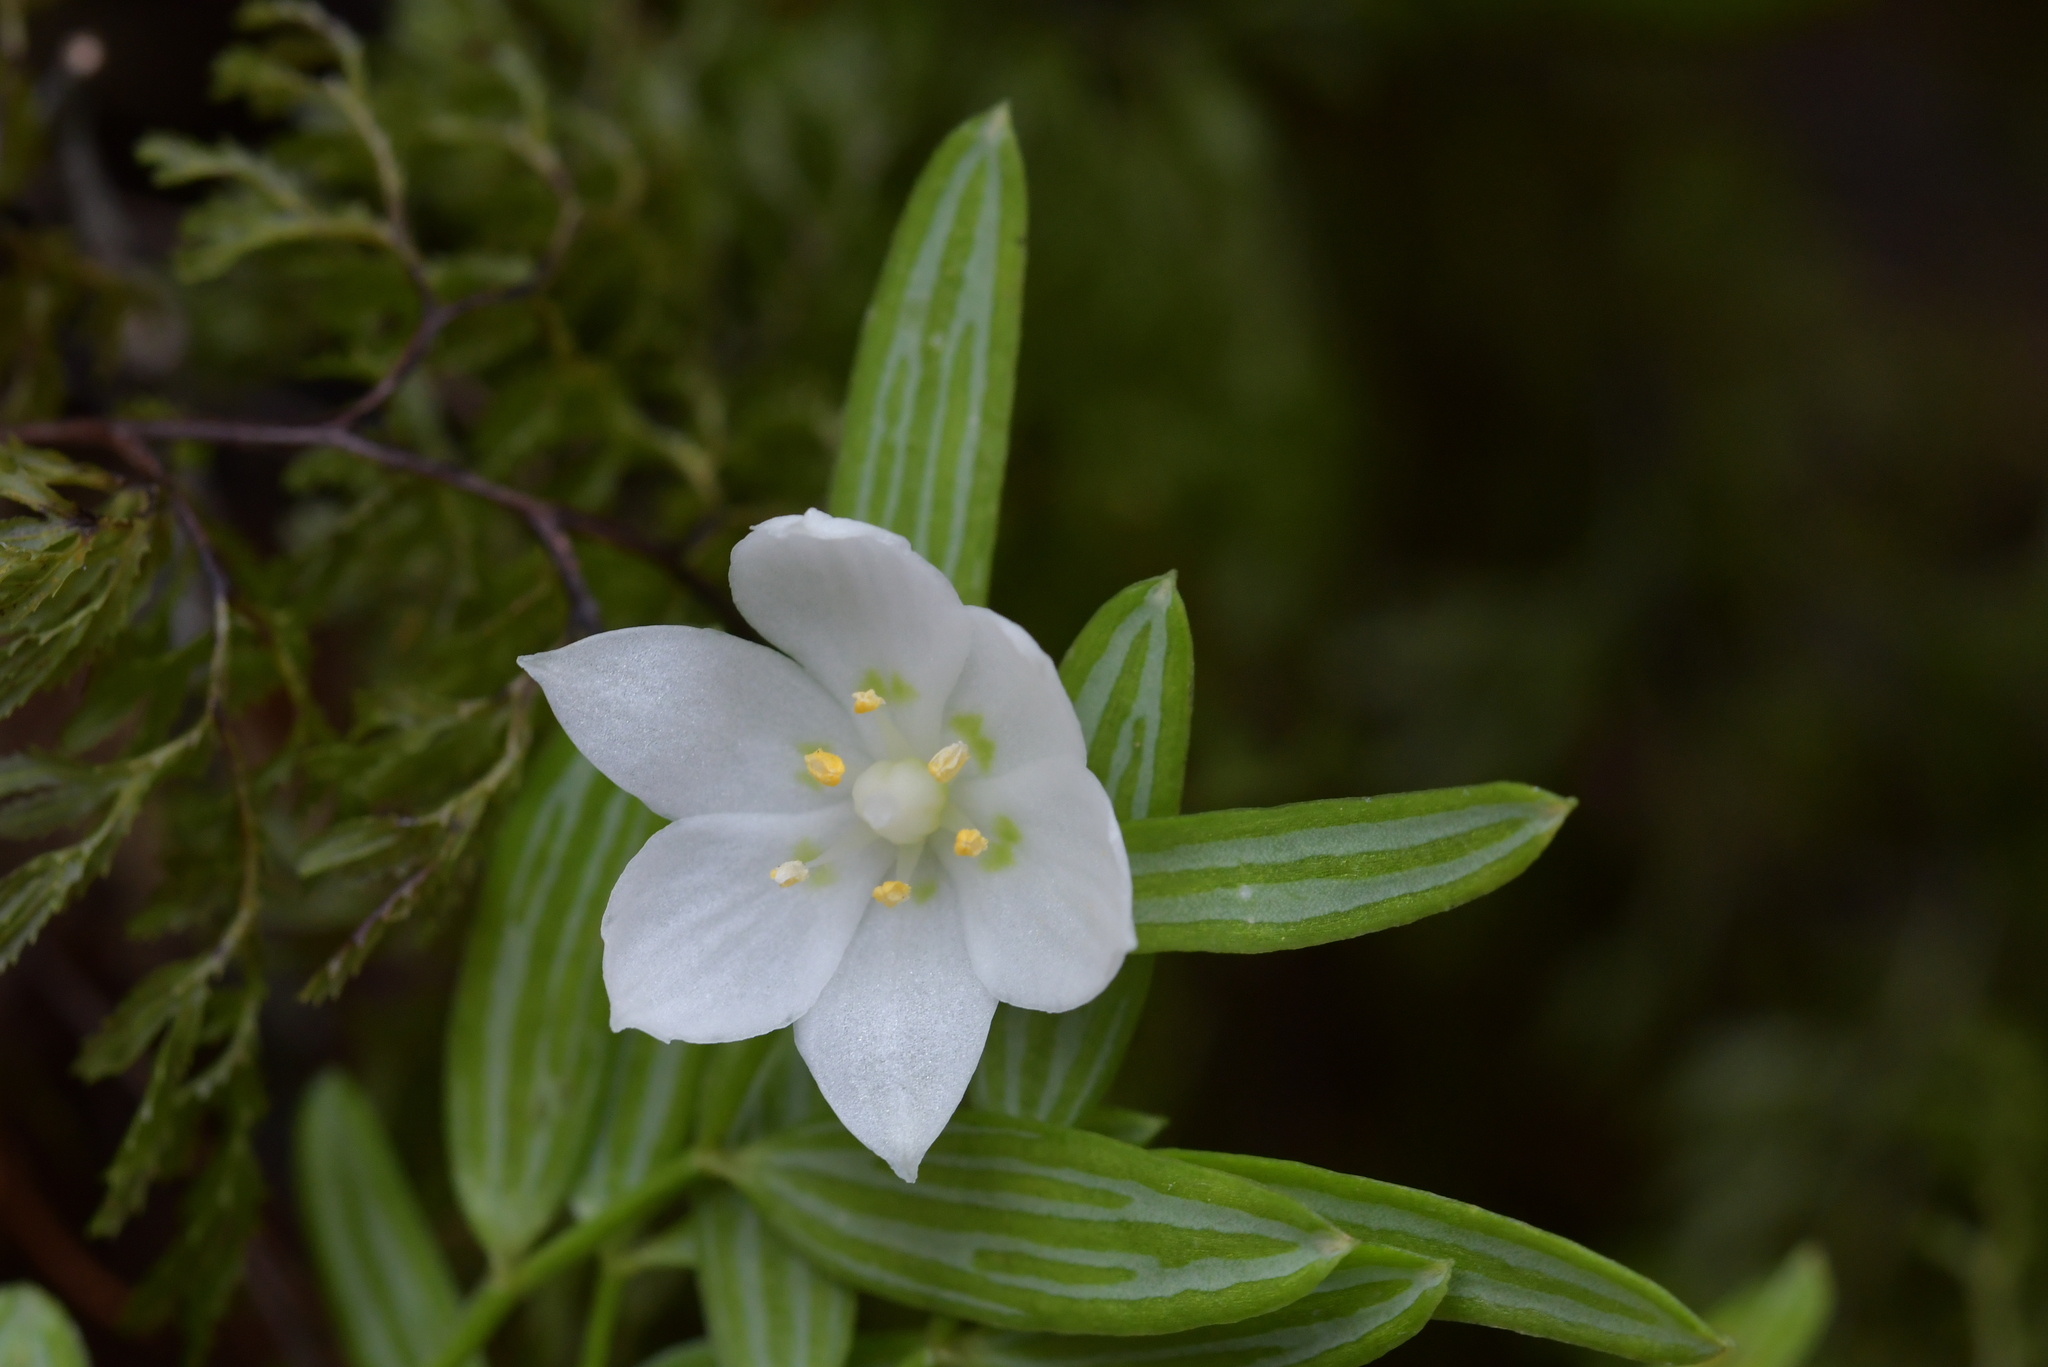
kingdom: Plantae
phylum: Tracheophyta
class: Liliopsida
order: Liliales
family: Alstroemeriaceae
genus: Luzuriaga
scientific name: Luzuriaga parviflora
